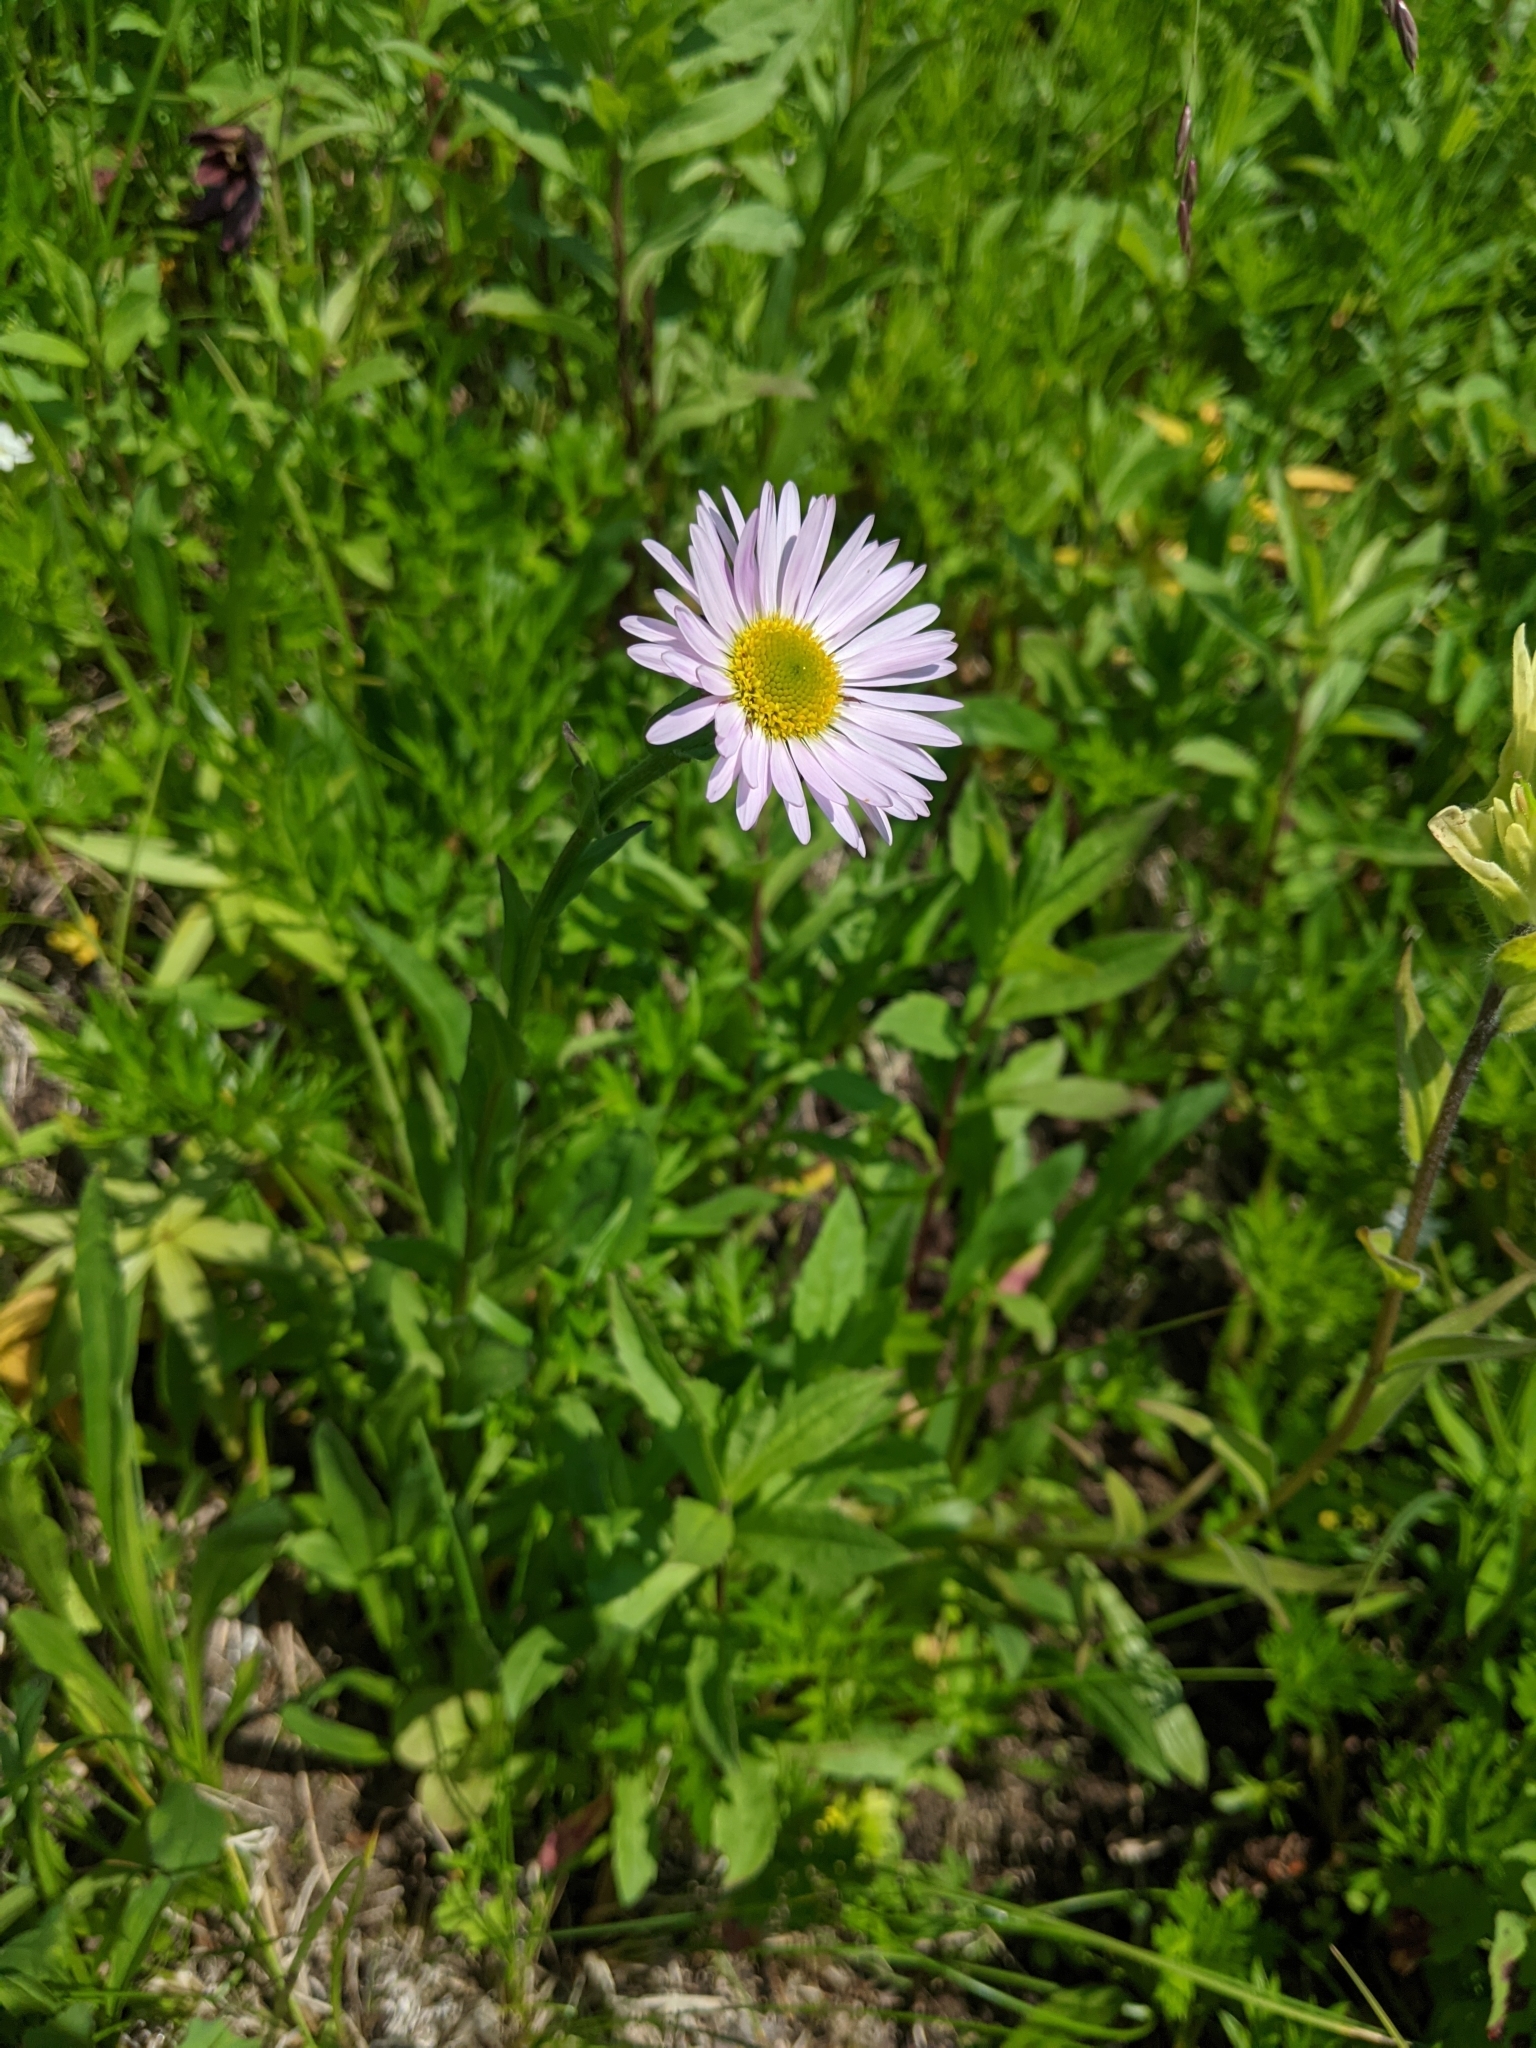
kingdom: Plantae
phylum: Tracheophyta
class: Magnoliopsida
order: Asterales
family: Asteraceae
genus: Erigeron
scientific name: Erigeron peregrinus
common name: Peregrine fleabane
